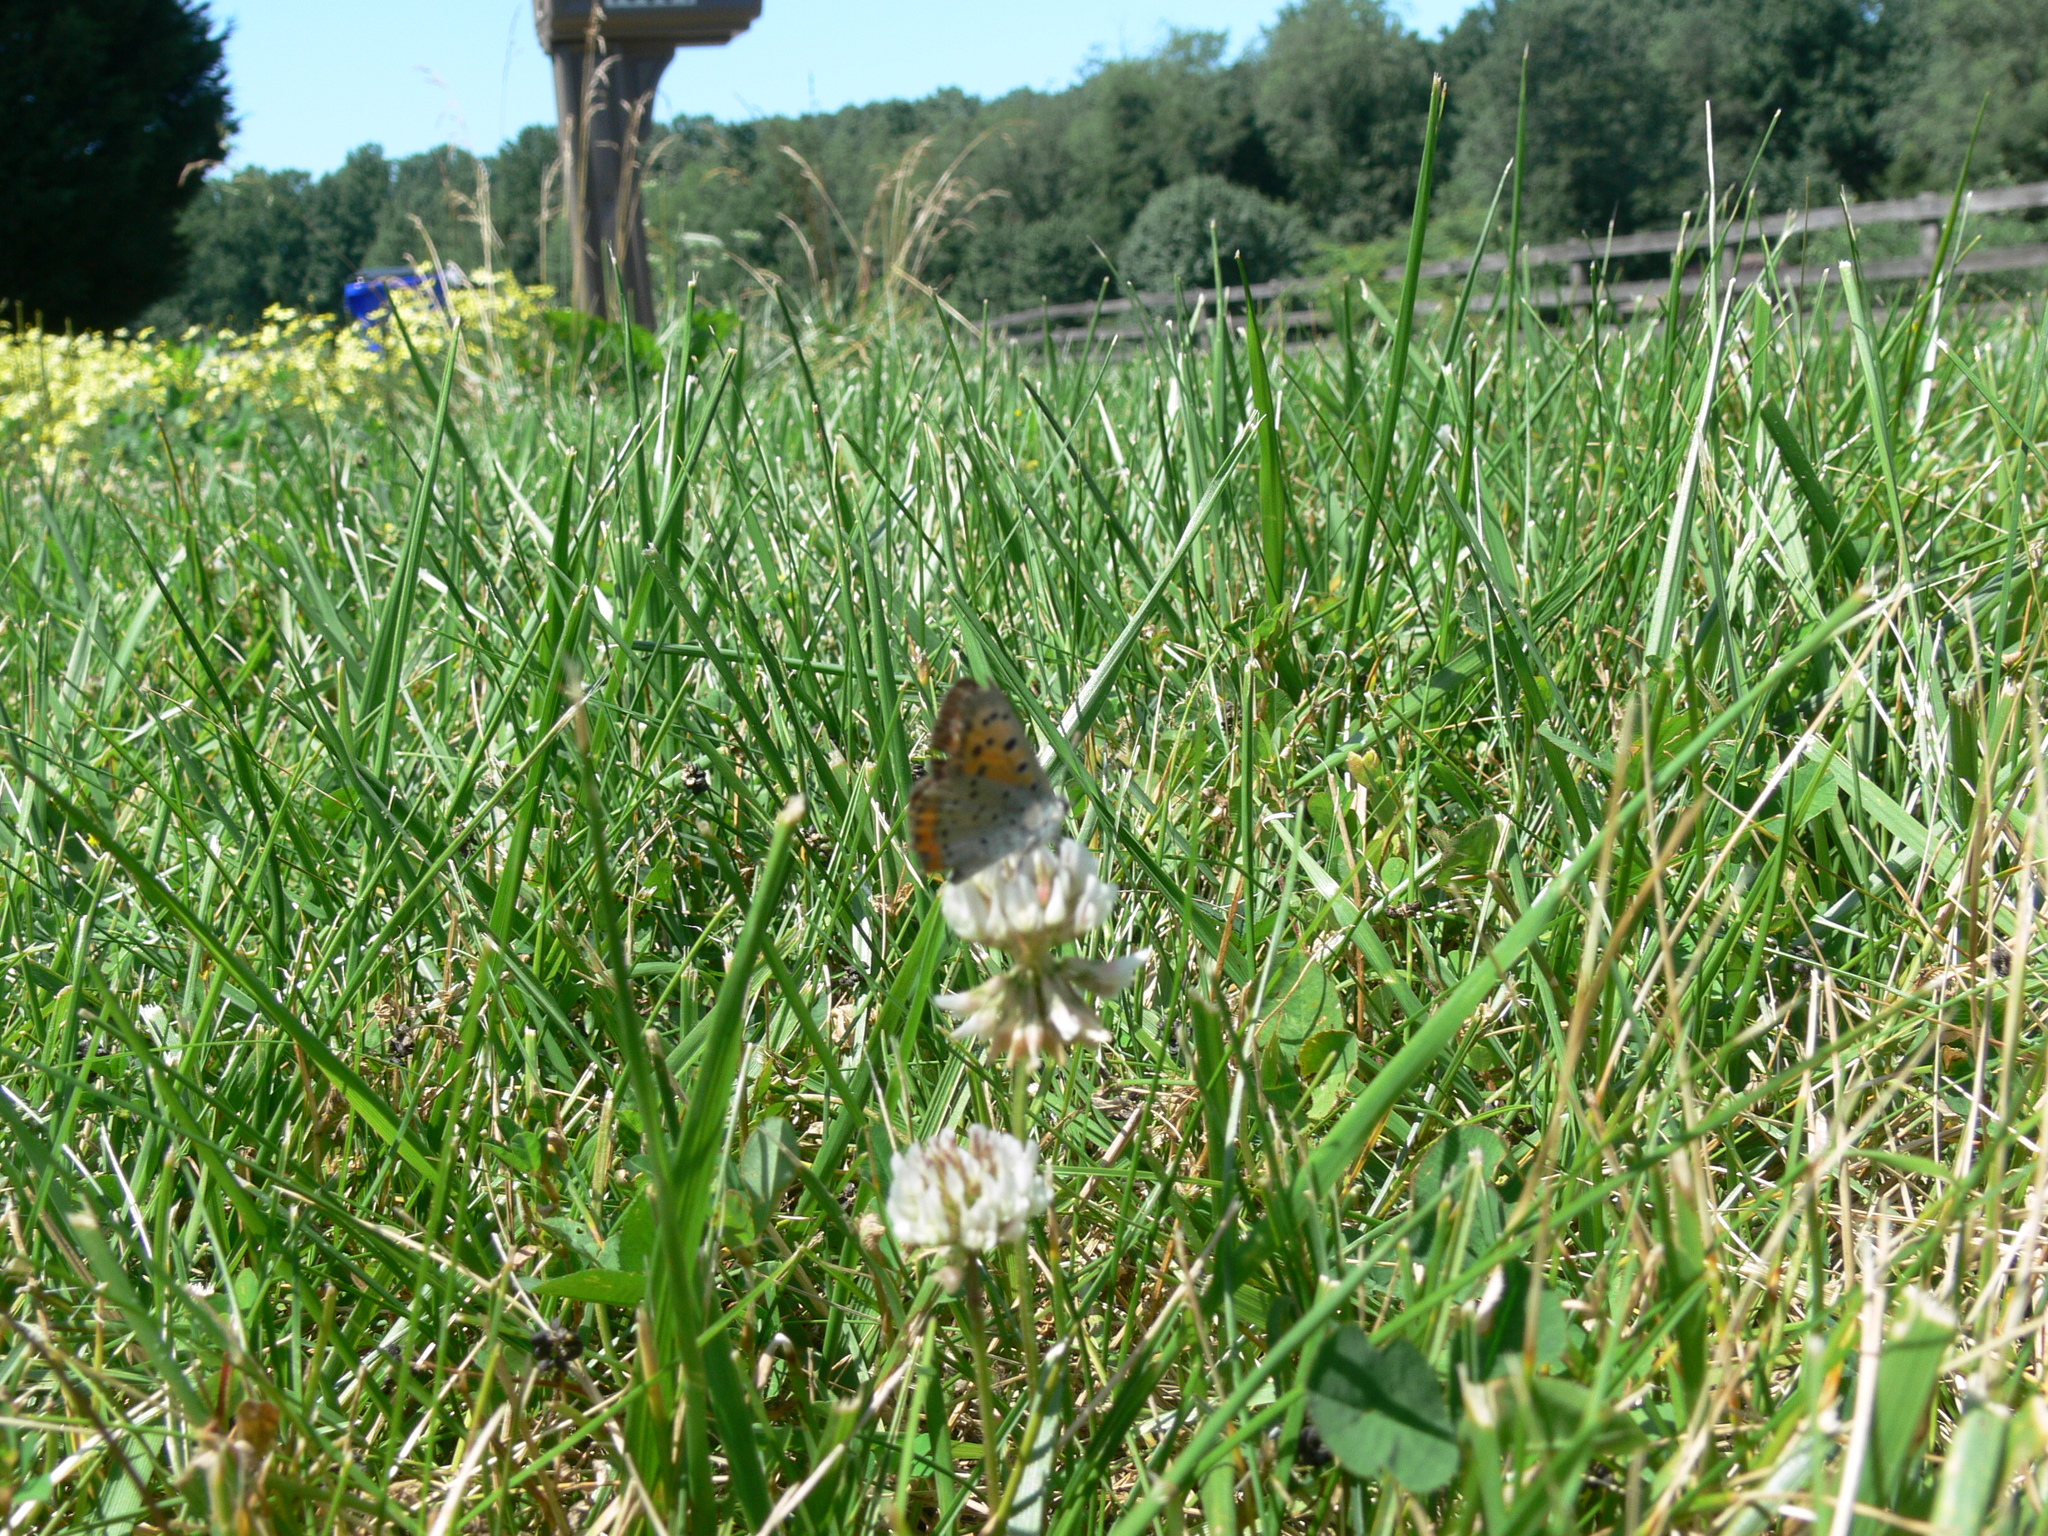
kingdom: Animalia
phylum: Arthropoda
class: Insecta
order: Lepidoptera
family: Lycaenidae
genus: Lycaena
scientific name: Lycaena hypophlaeas
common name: American copper
